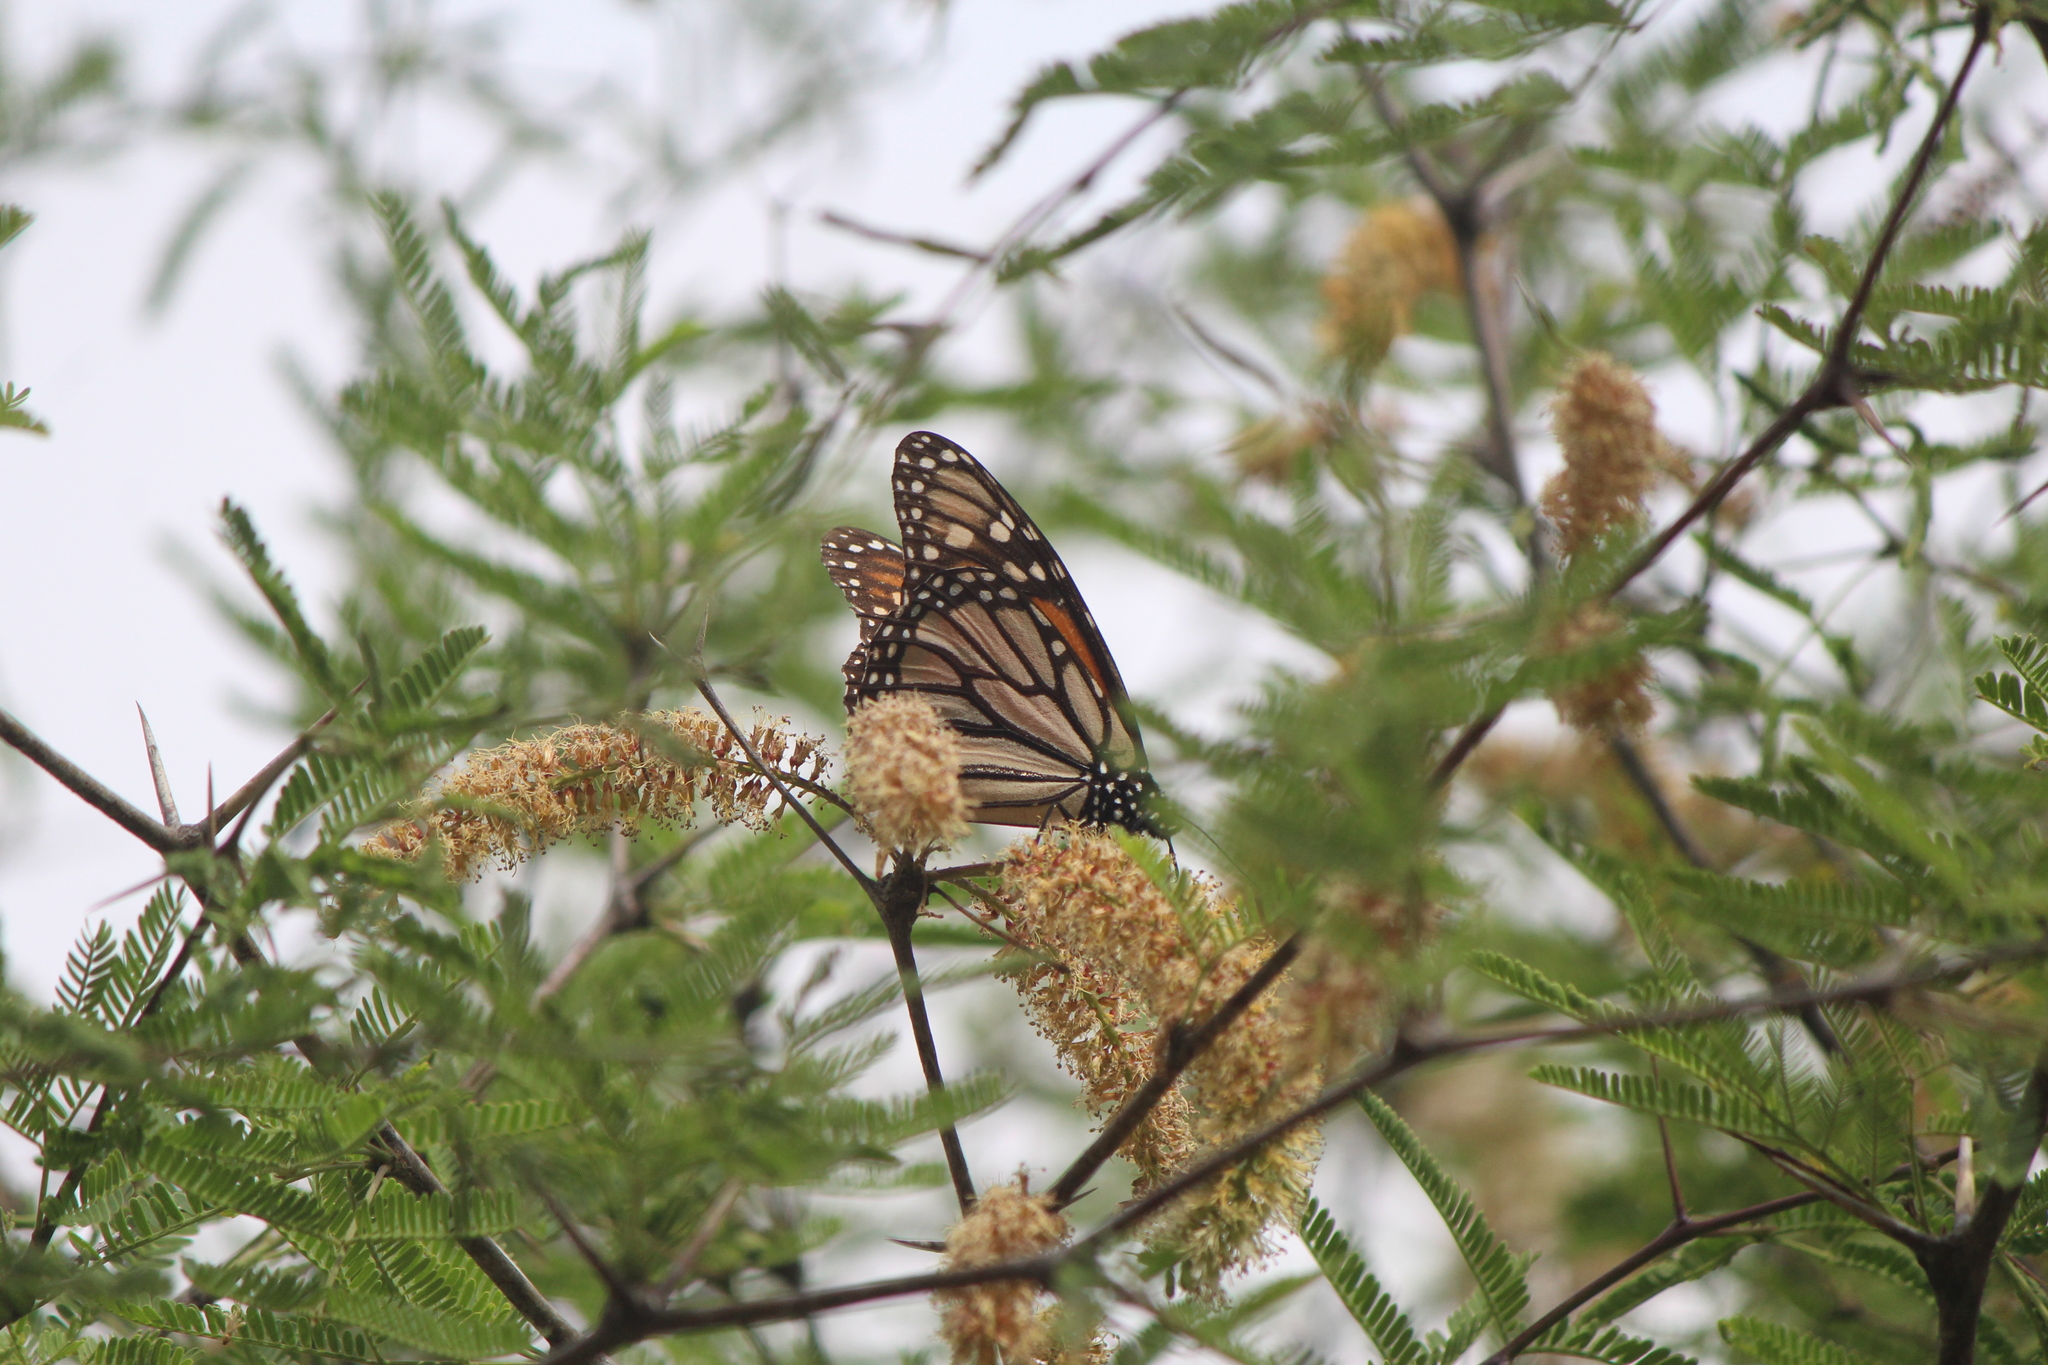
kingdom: Animalia
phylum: Arthropoda
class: Insecta
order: Lepidoptera
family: Nymphalidae
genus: Danaus
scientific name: Danaus plexippus
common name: Monarch
